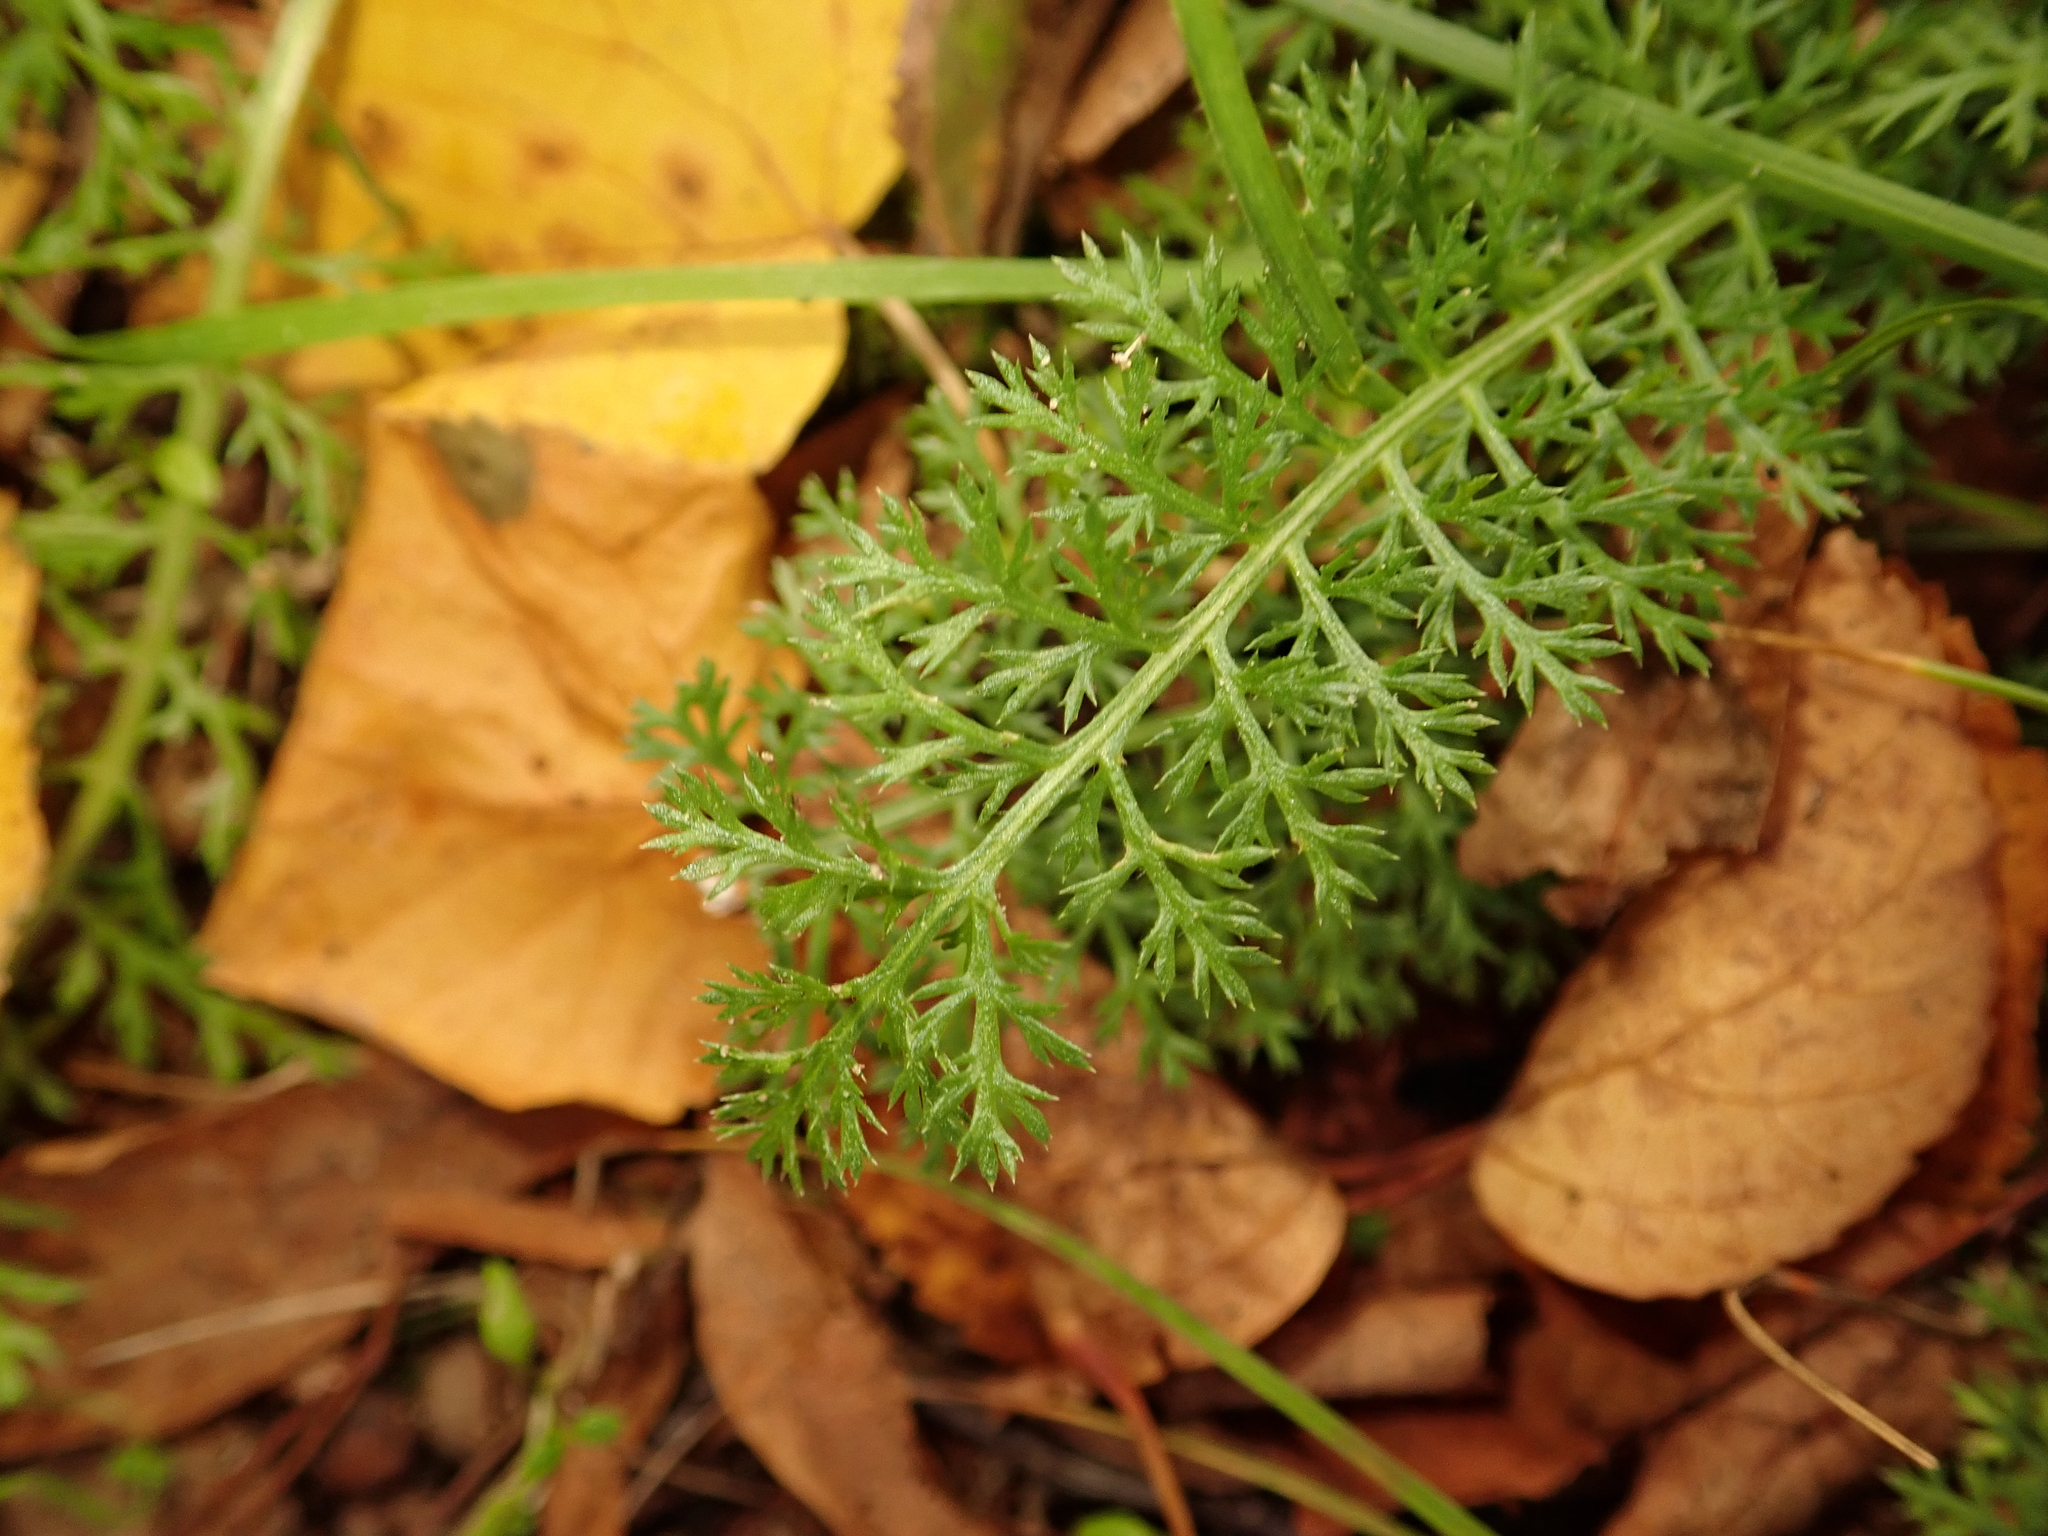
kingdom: Plantae
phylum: Tracheophyta
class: Magnoliopsida
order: Asterales
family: Asteraceae
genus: Achillea
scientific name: Achillea millefolium
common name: Yarrow
